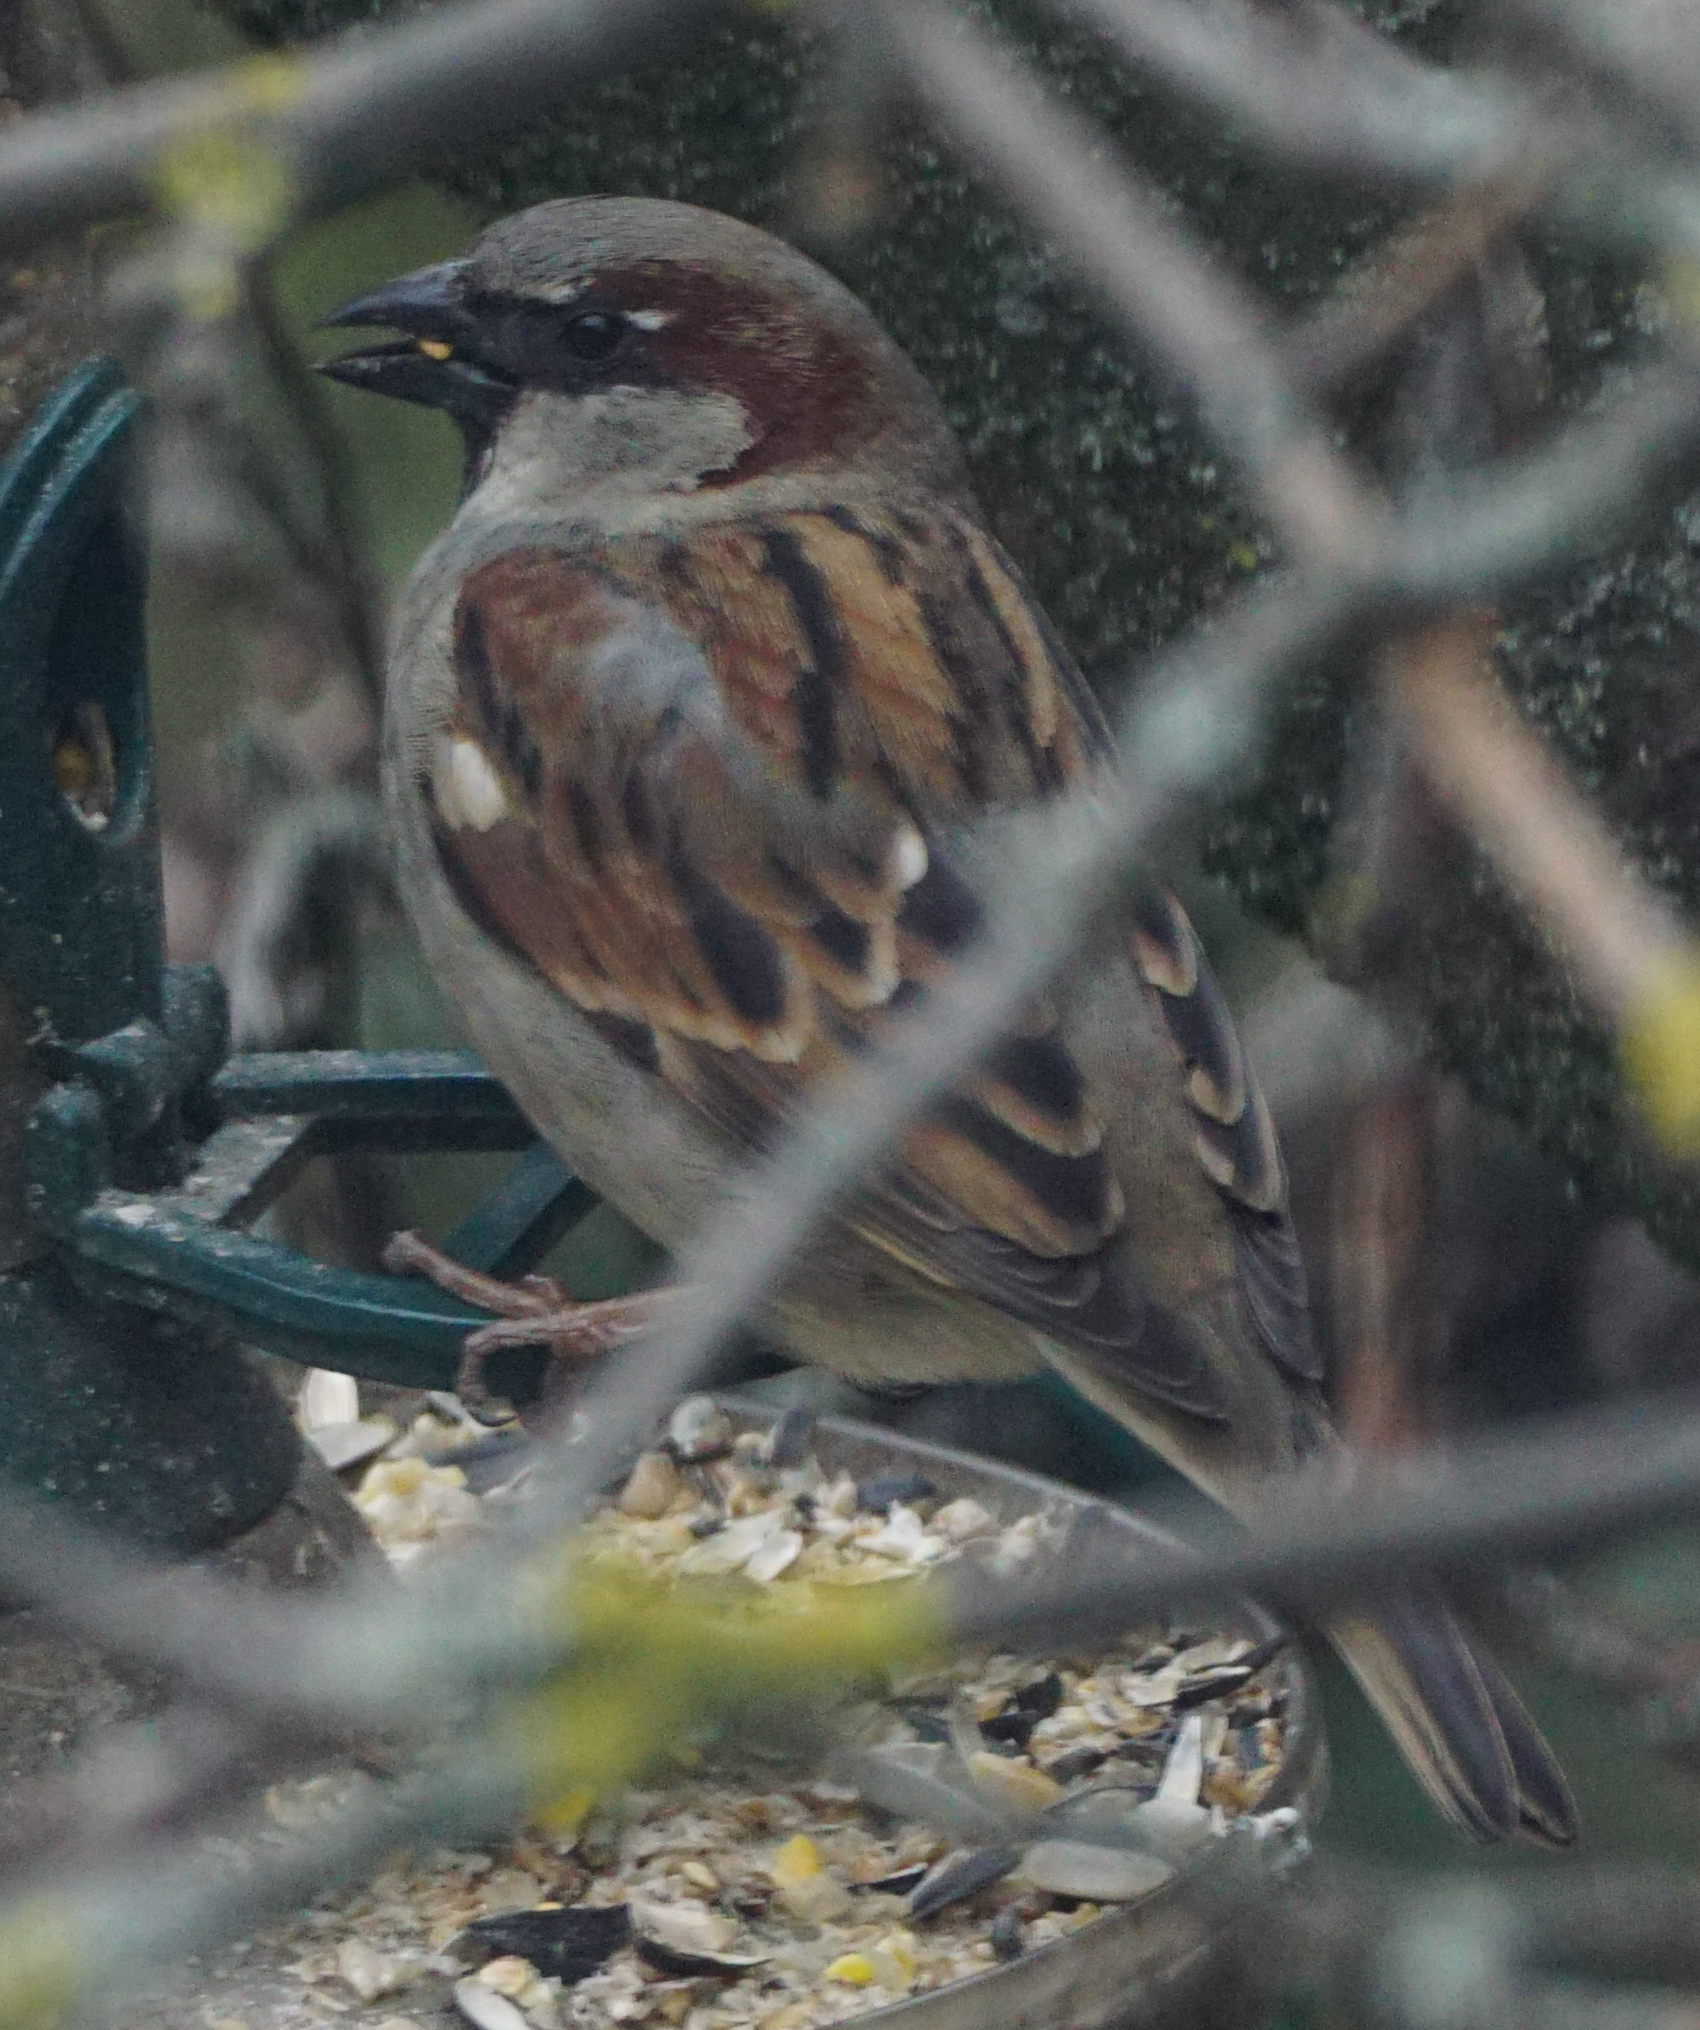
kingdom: Animalia
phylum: Chordata
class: Aves
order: Passeriformes
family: Passeridae
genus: Passer
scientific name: Passer domesticus
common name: House sparrow
